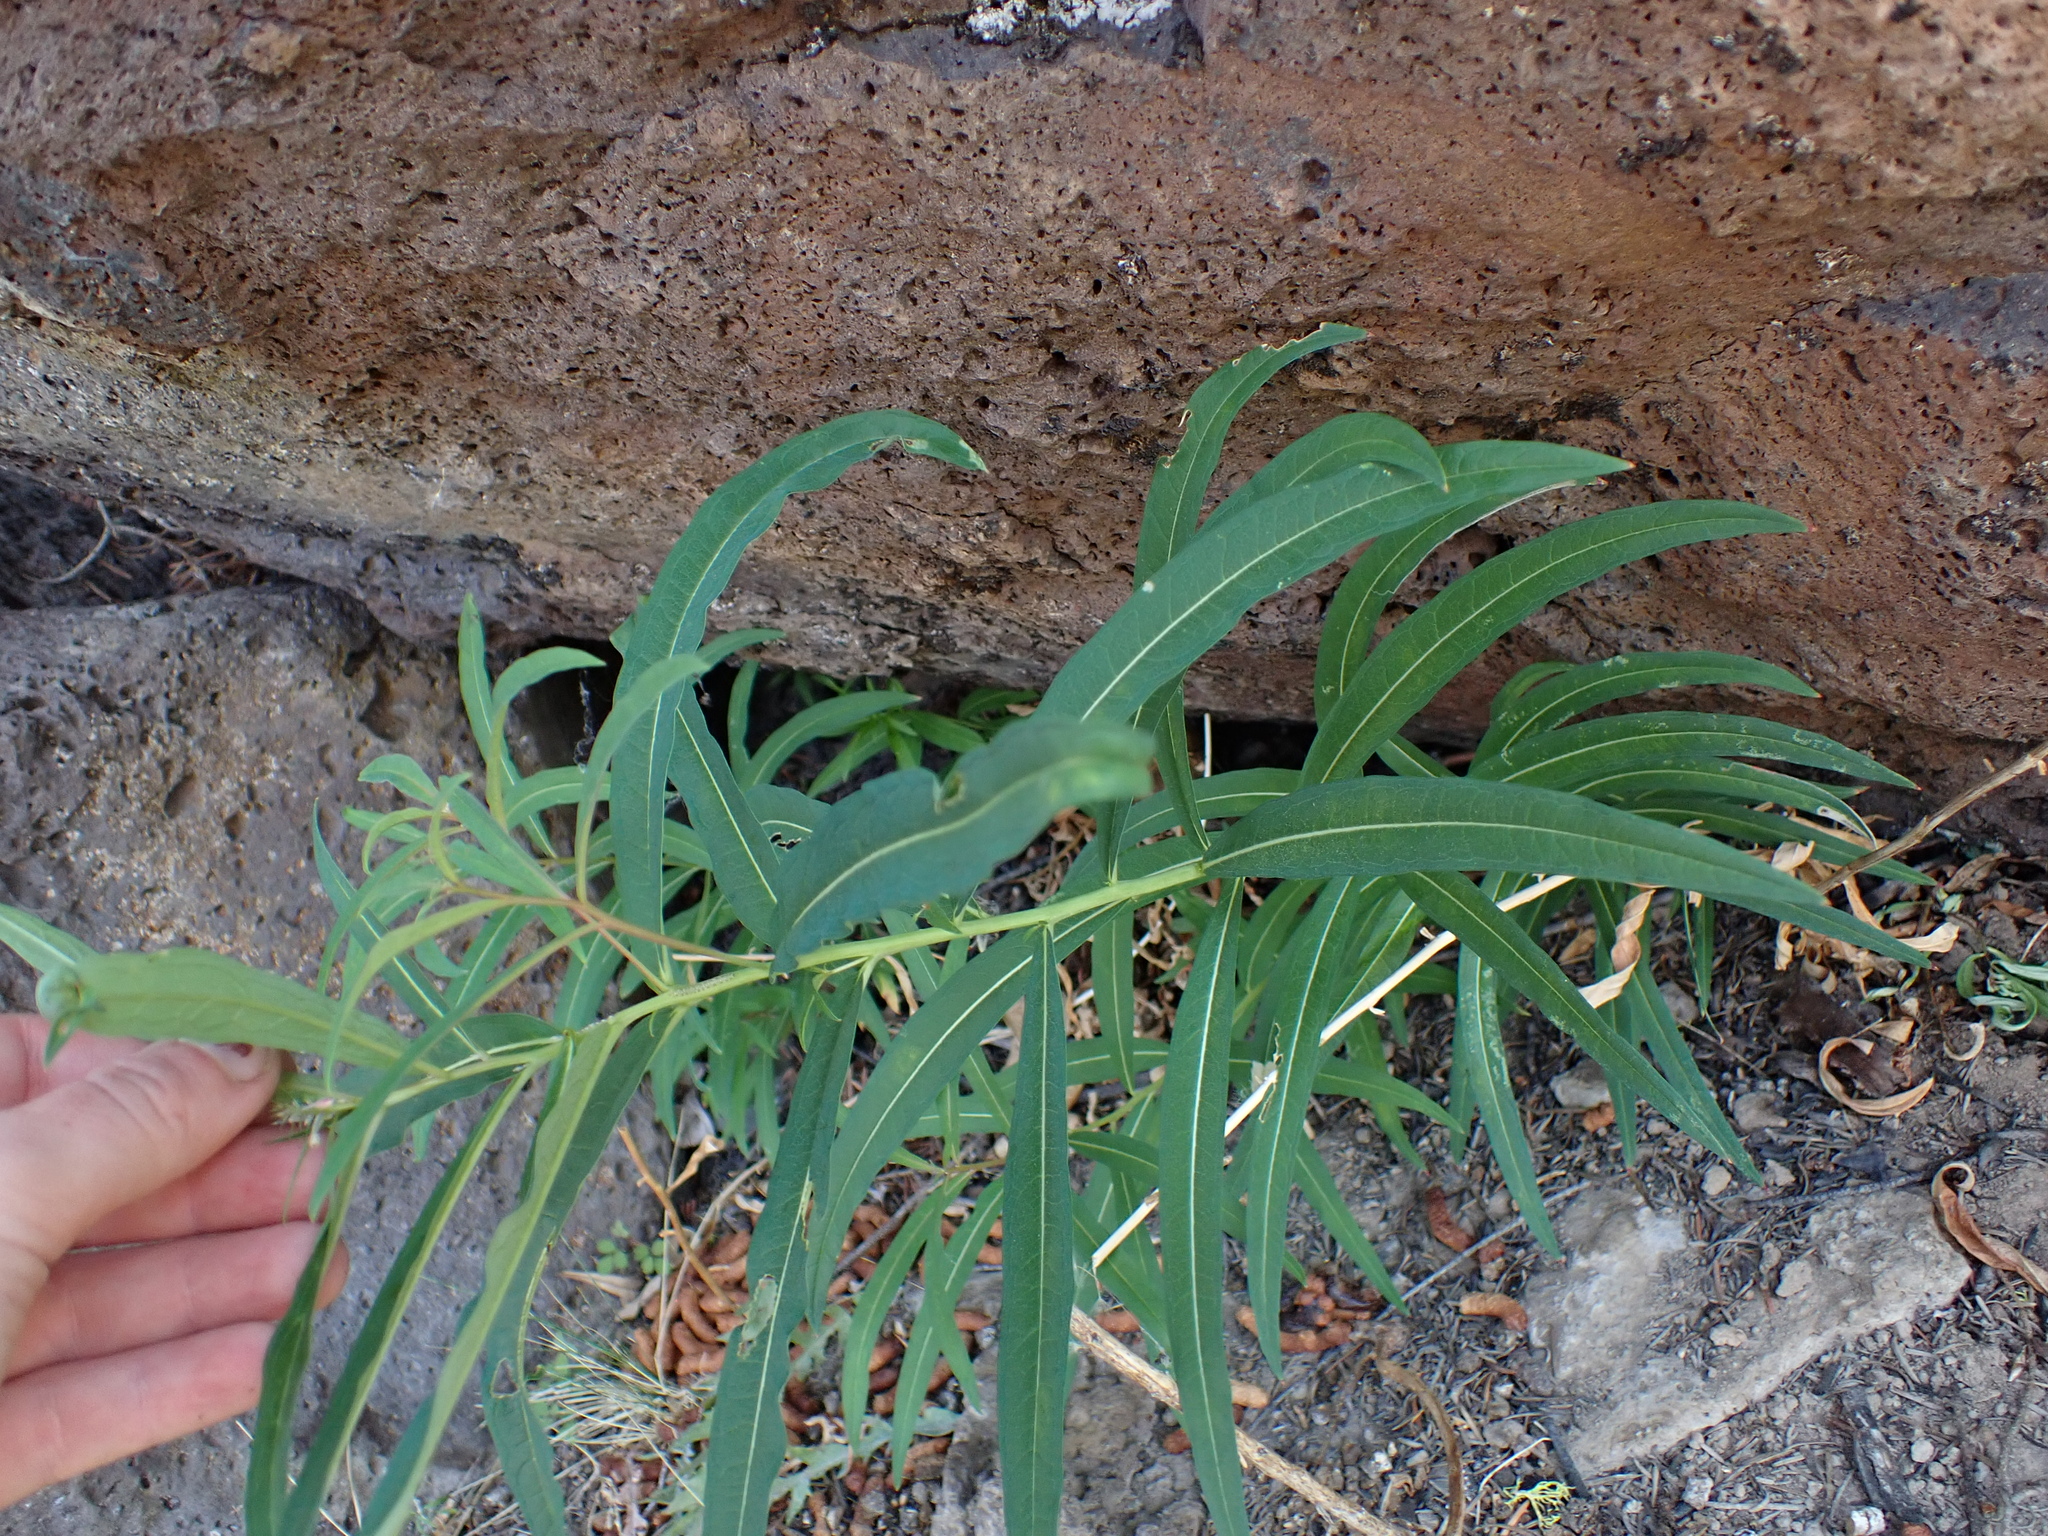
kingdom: Plantae
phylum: Tracheophyta
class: Magnoliopsida
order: Myrtales
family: Onagraceae
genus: Chamaenerion
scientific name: Chamaenerion angustifolium
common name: Fireweed
